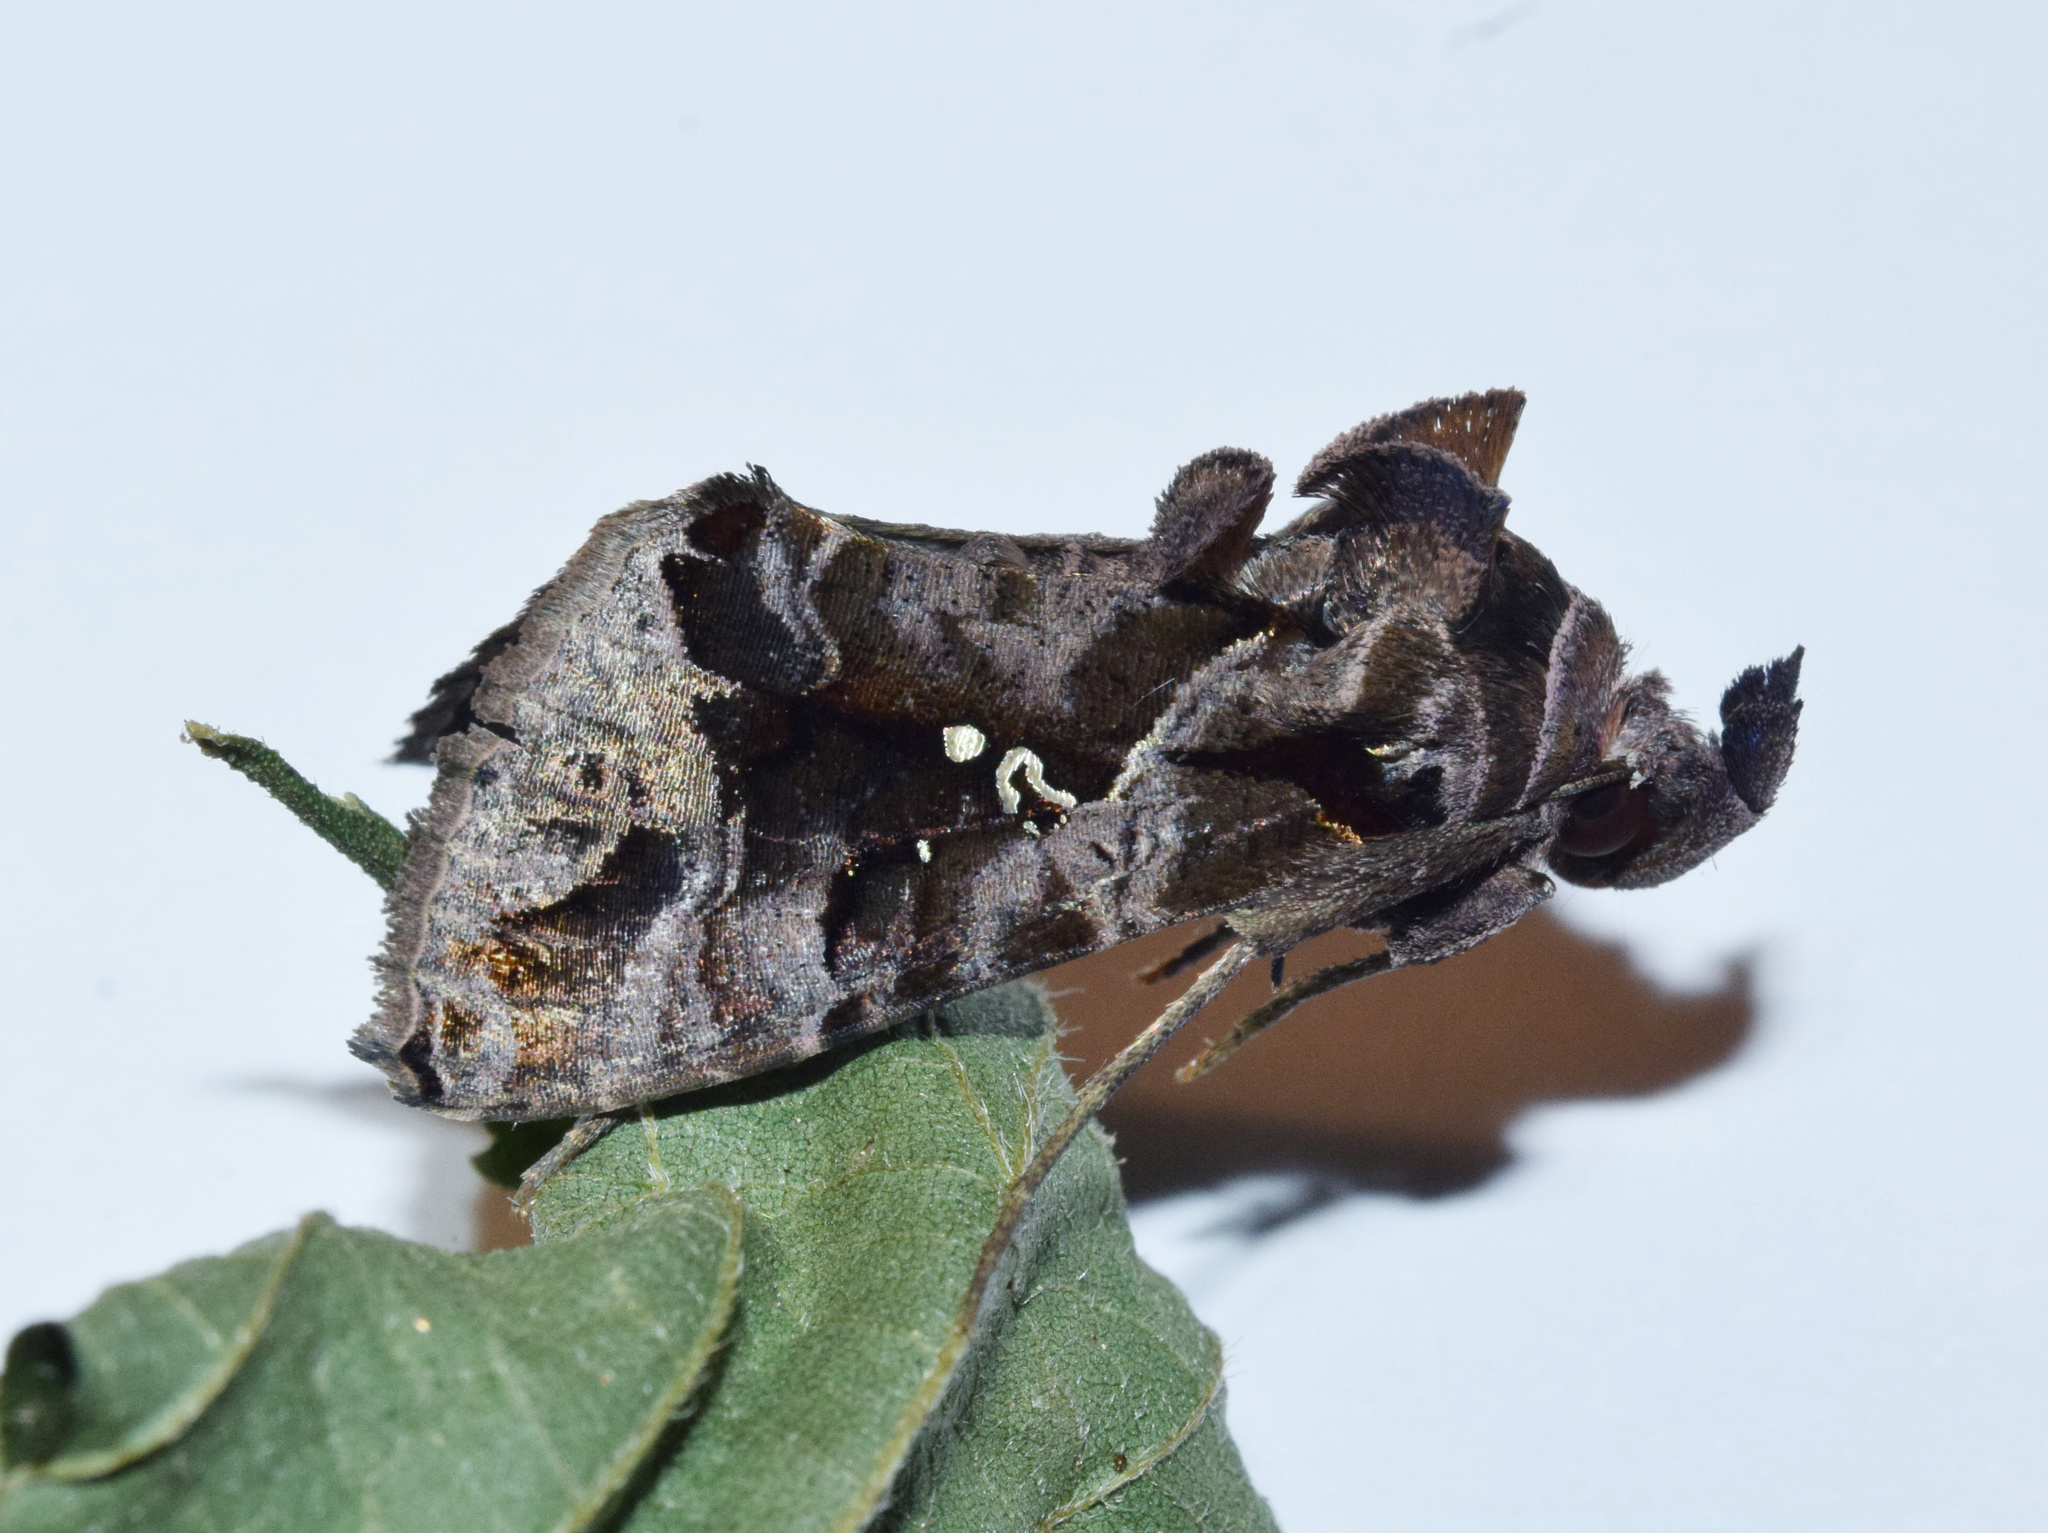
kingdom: Animalia
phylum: Arthropoda
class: Insecta
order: Lepidoptera
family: Noctuidae
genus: Plusiopalpa
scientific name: Plusiopalpa dichora
